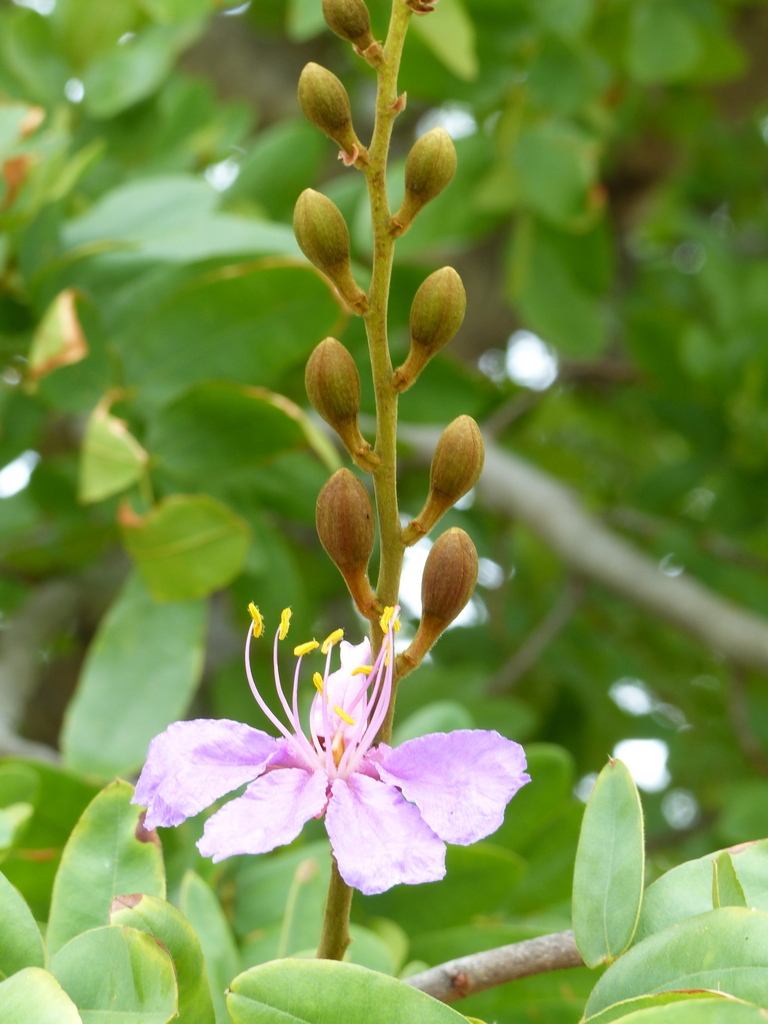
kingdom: Plantae
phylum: Tracheophyta
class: Magnoliopsida
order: Fabales
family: Fabaceae
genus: Baikiaea
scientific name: Baikiaea plurijuga
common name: Rhodesian-teak
